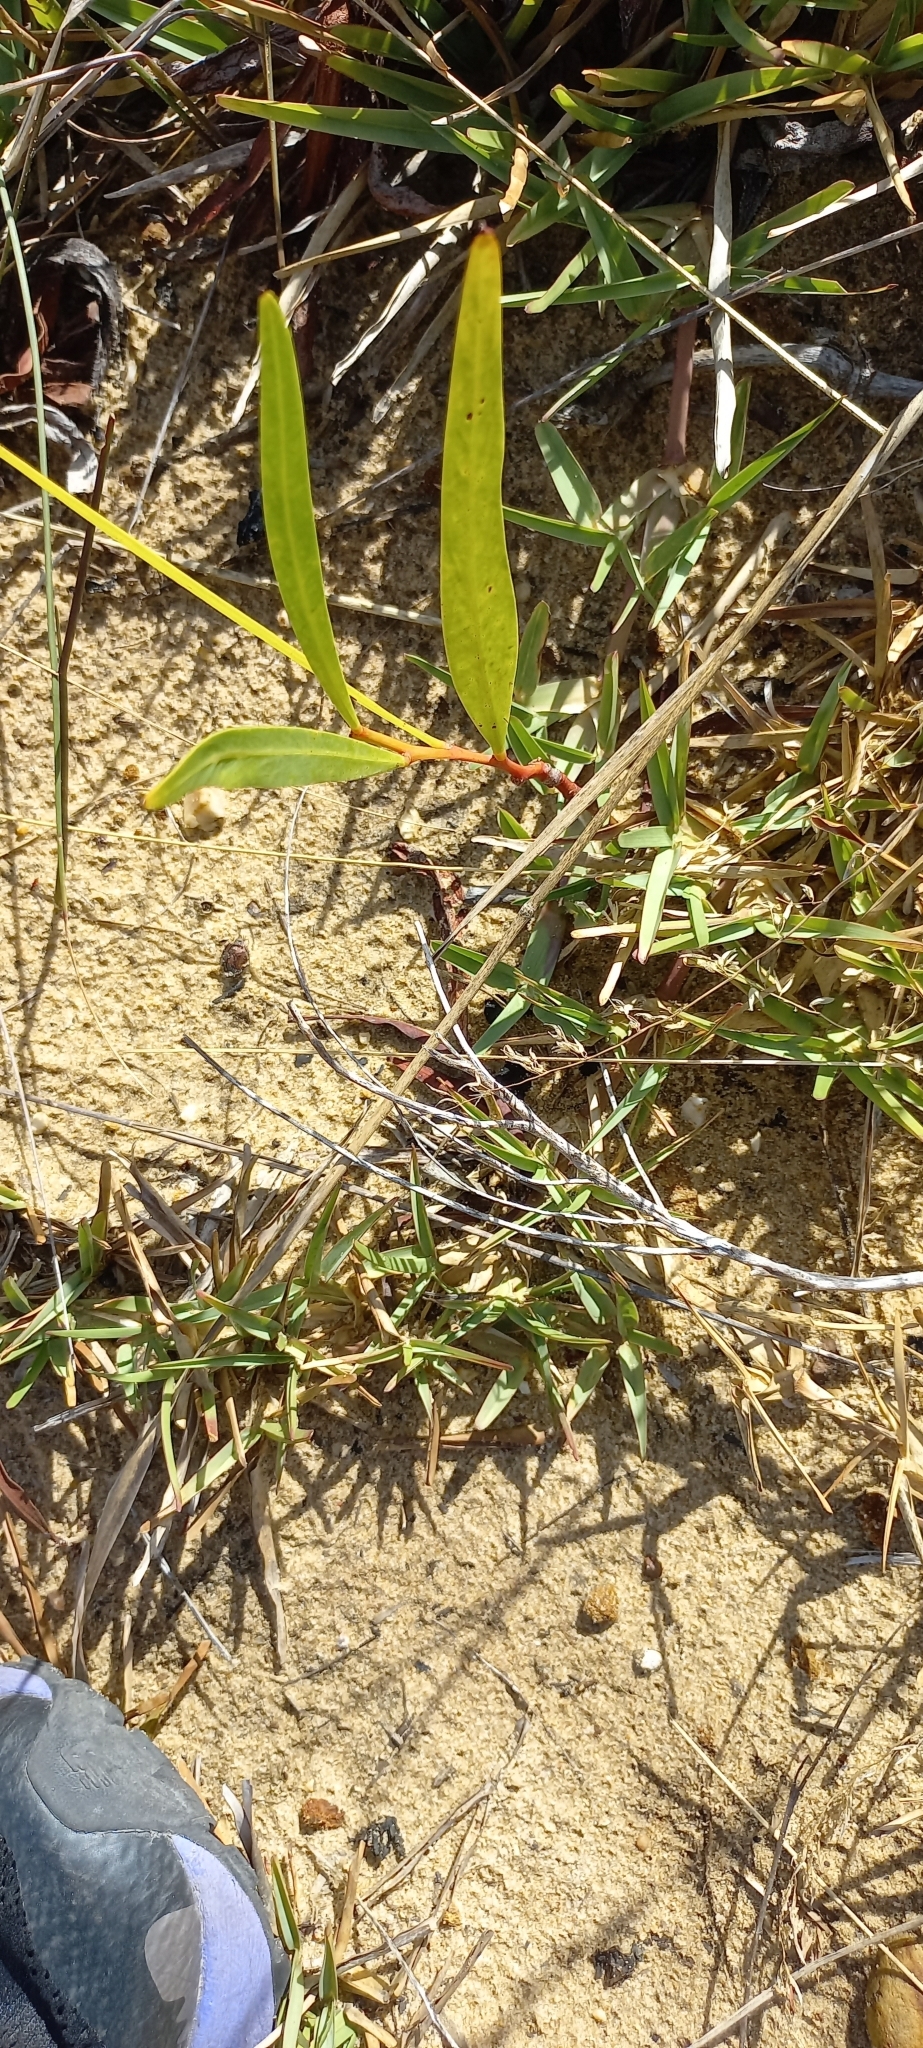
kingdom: Plantae
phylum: Tracheophyta
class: Liliopsida
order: Poales
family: Poaceae
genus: Stenotaphrum
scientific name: Stenotaphrum secundatum
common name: St. augustine grass
